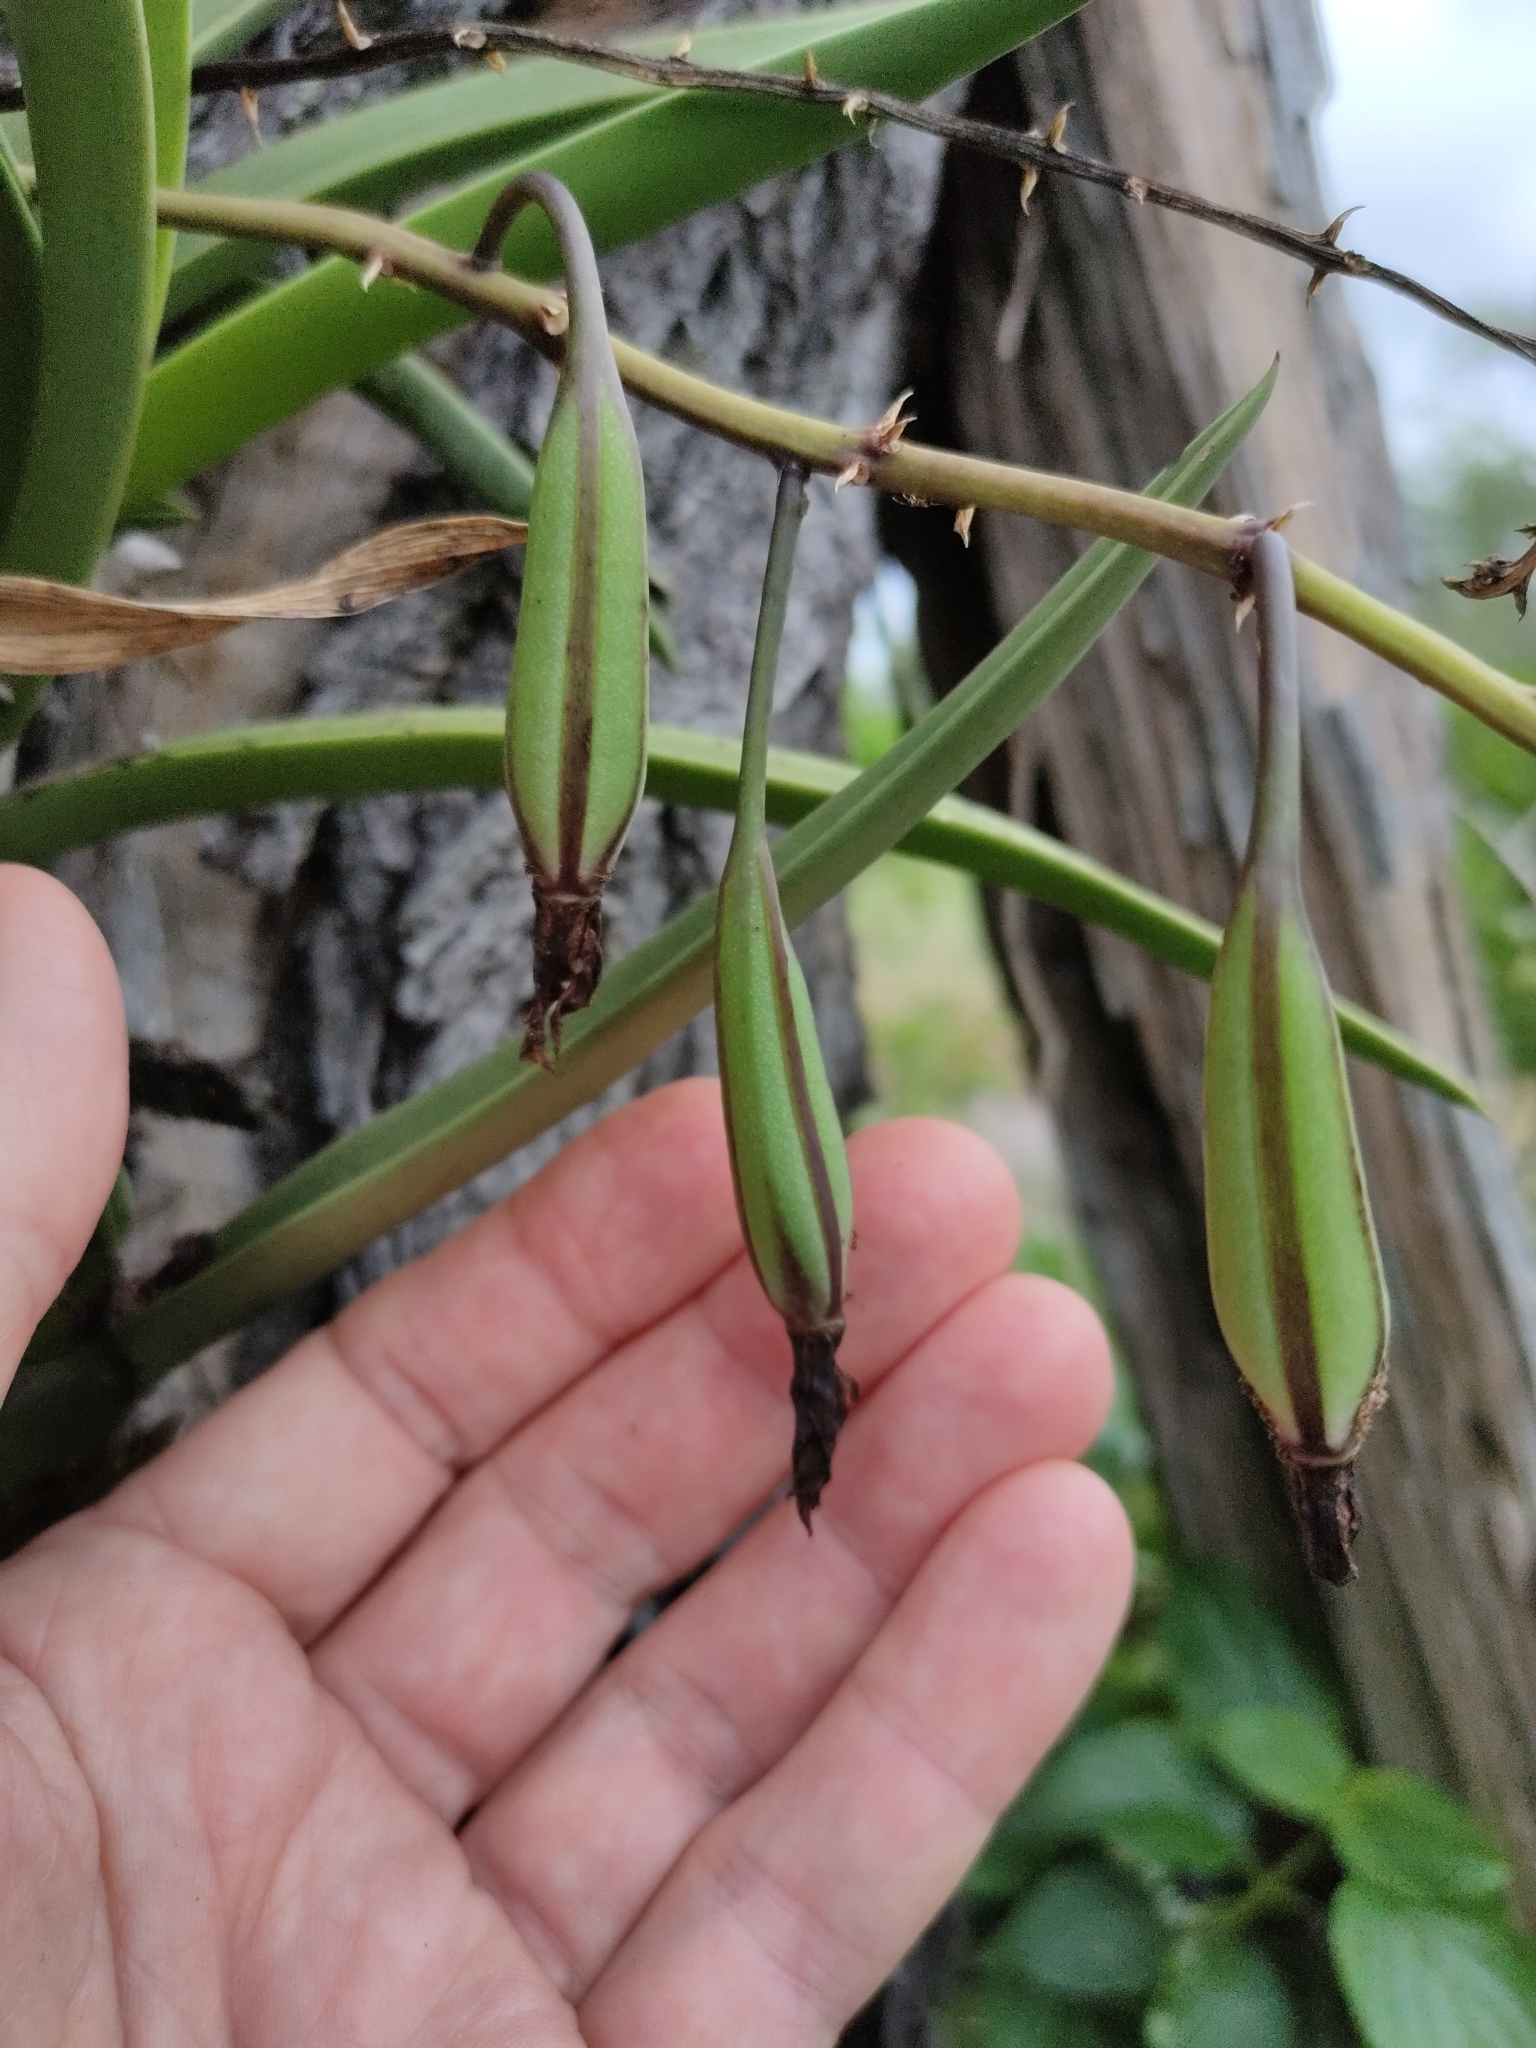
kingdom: Plantae
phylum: Tracheophyta
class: Liliopsida
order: Asparagales
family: Orchidaceae
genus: Cymbidium
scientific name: Cymbidium canaliculatum
